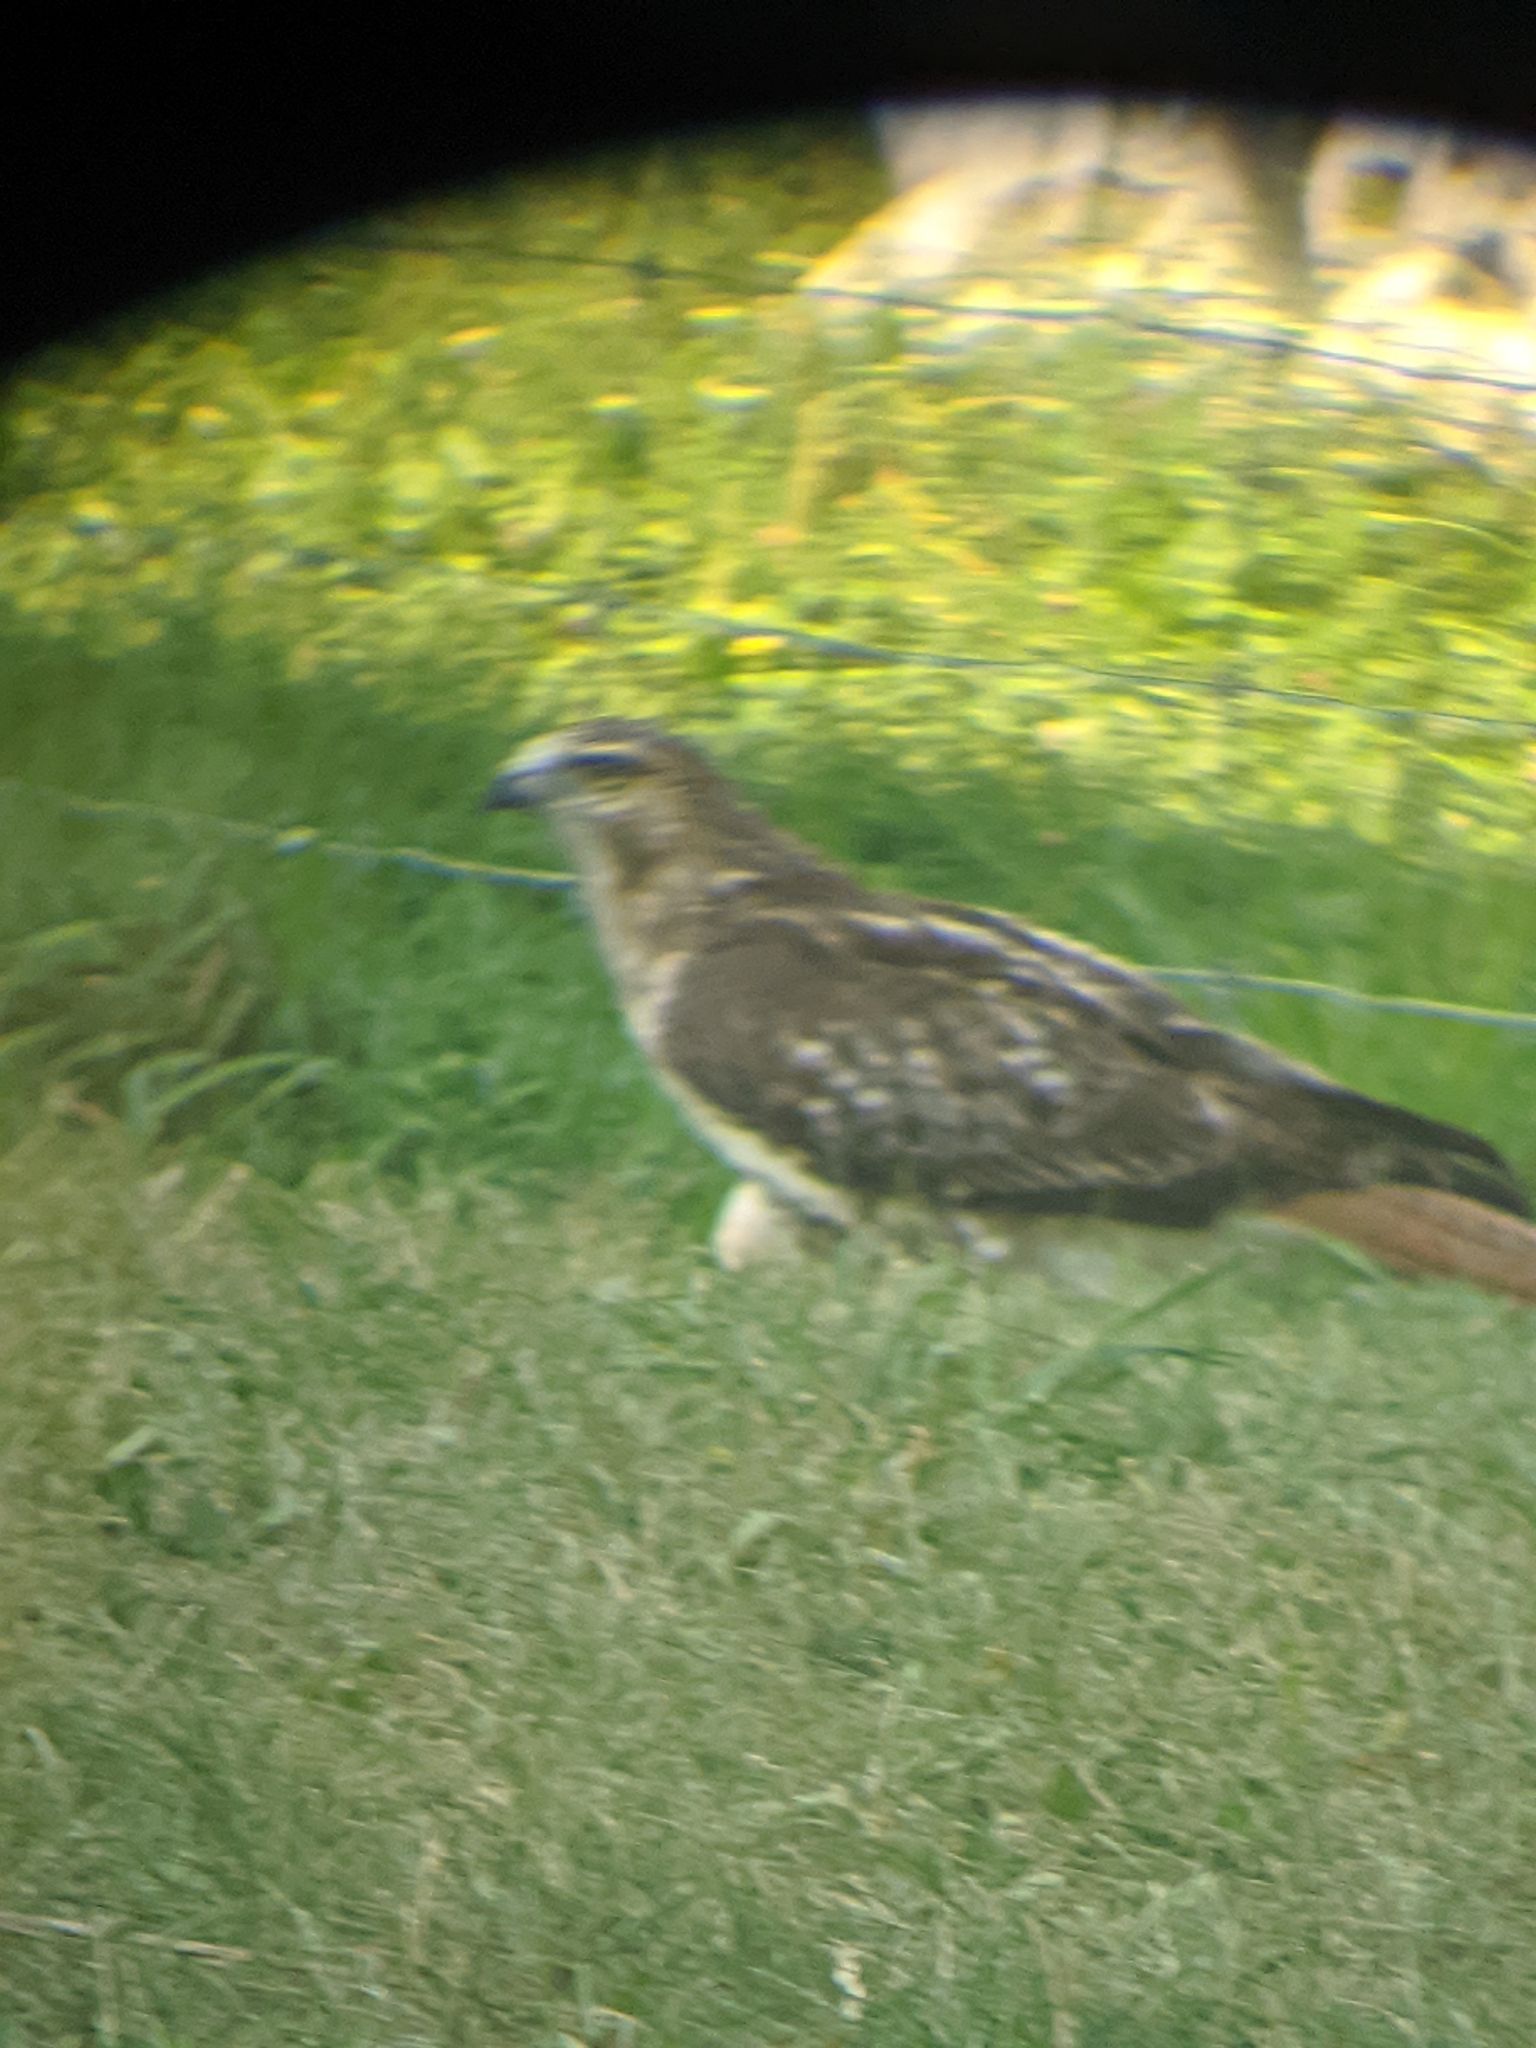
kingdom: Animalia
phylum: Chordata
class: Aves
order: Accipitriformes
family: Accipitridae
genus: Buteo
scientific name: Buteo jamaicensis
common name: Red-tailed hawk
